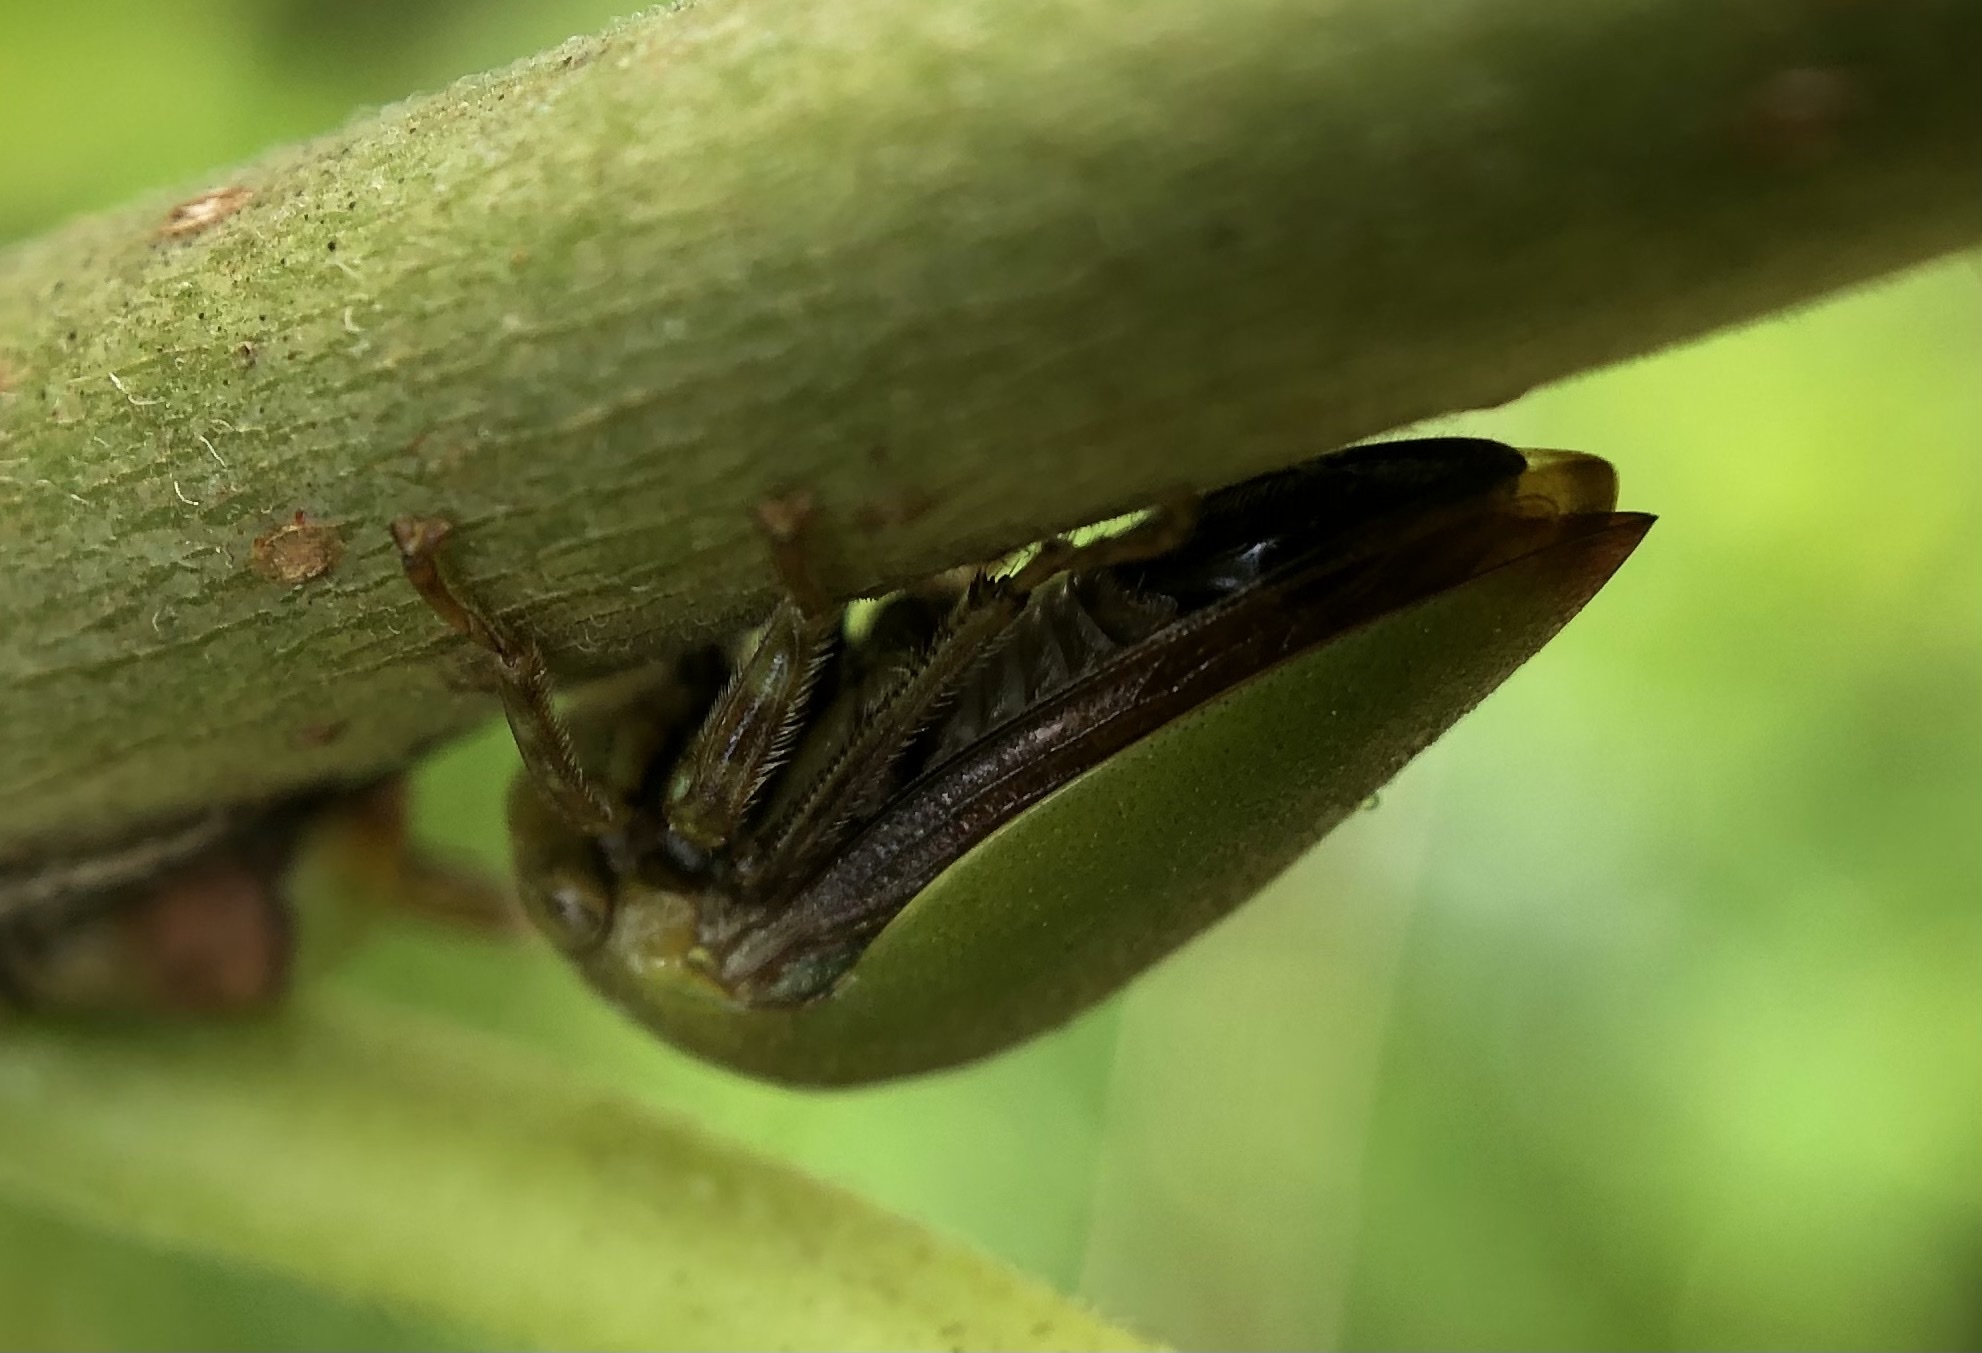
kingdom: Animalia
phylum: Arthropoda
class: Insecta
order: Hemiptera
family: Membracidae
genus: Hebetica
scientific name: Hebetica
